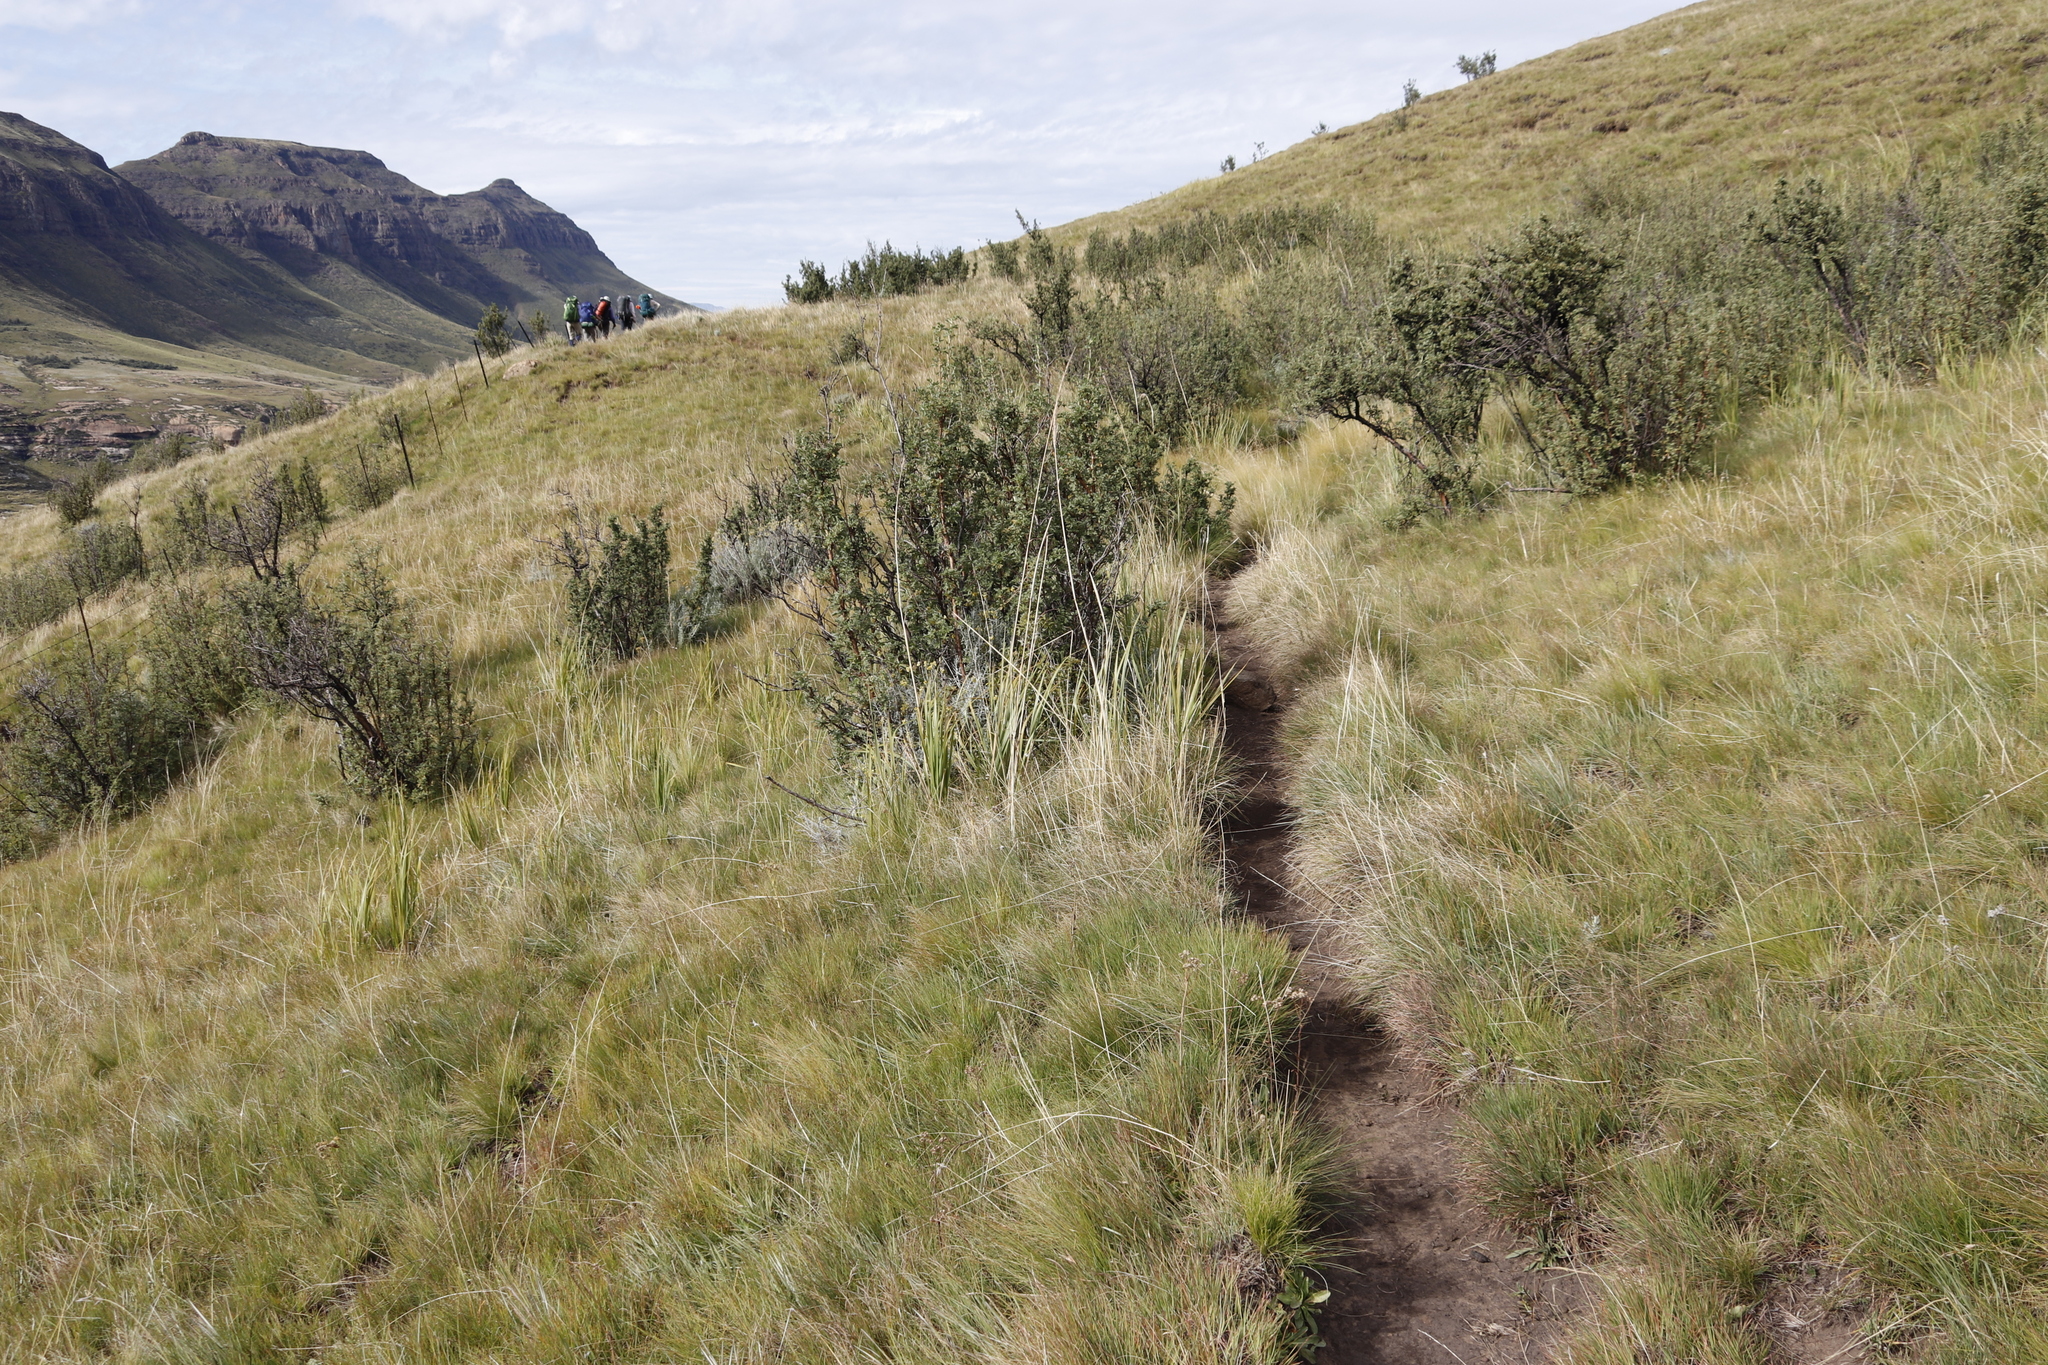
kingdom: Plantae
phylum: Tracheophyta
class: Liliopsida
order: Poales
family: Poaceae
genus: Miscanthus
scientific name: Miscanthus ecklonii
